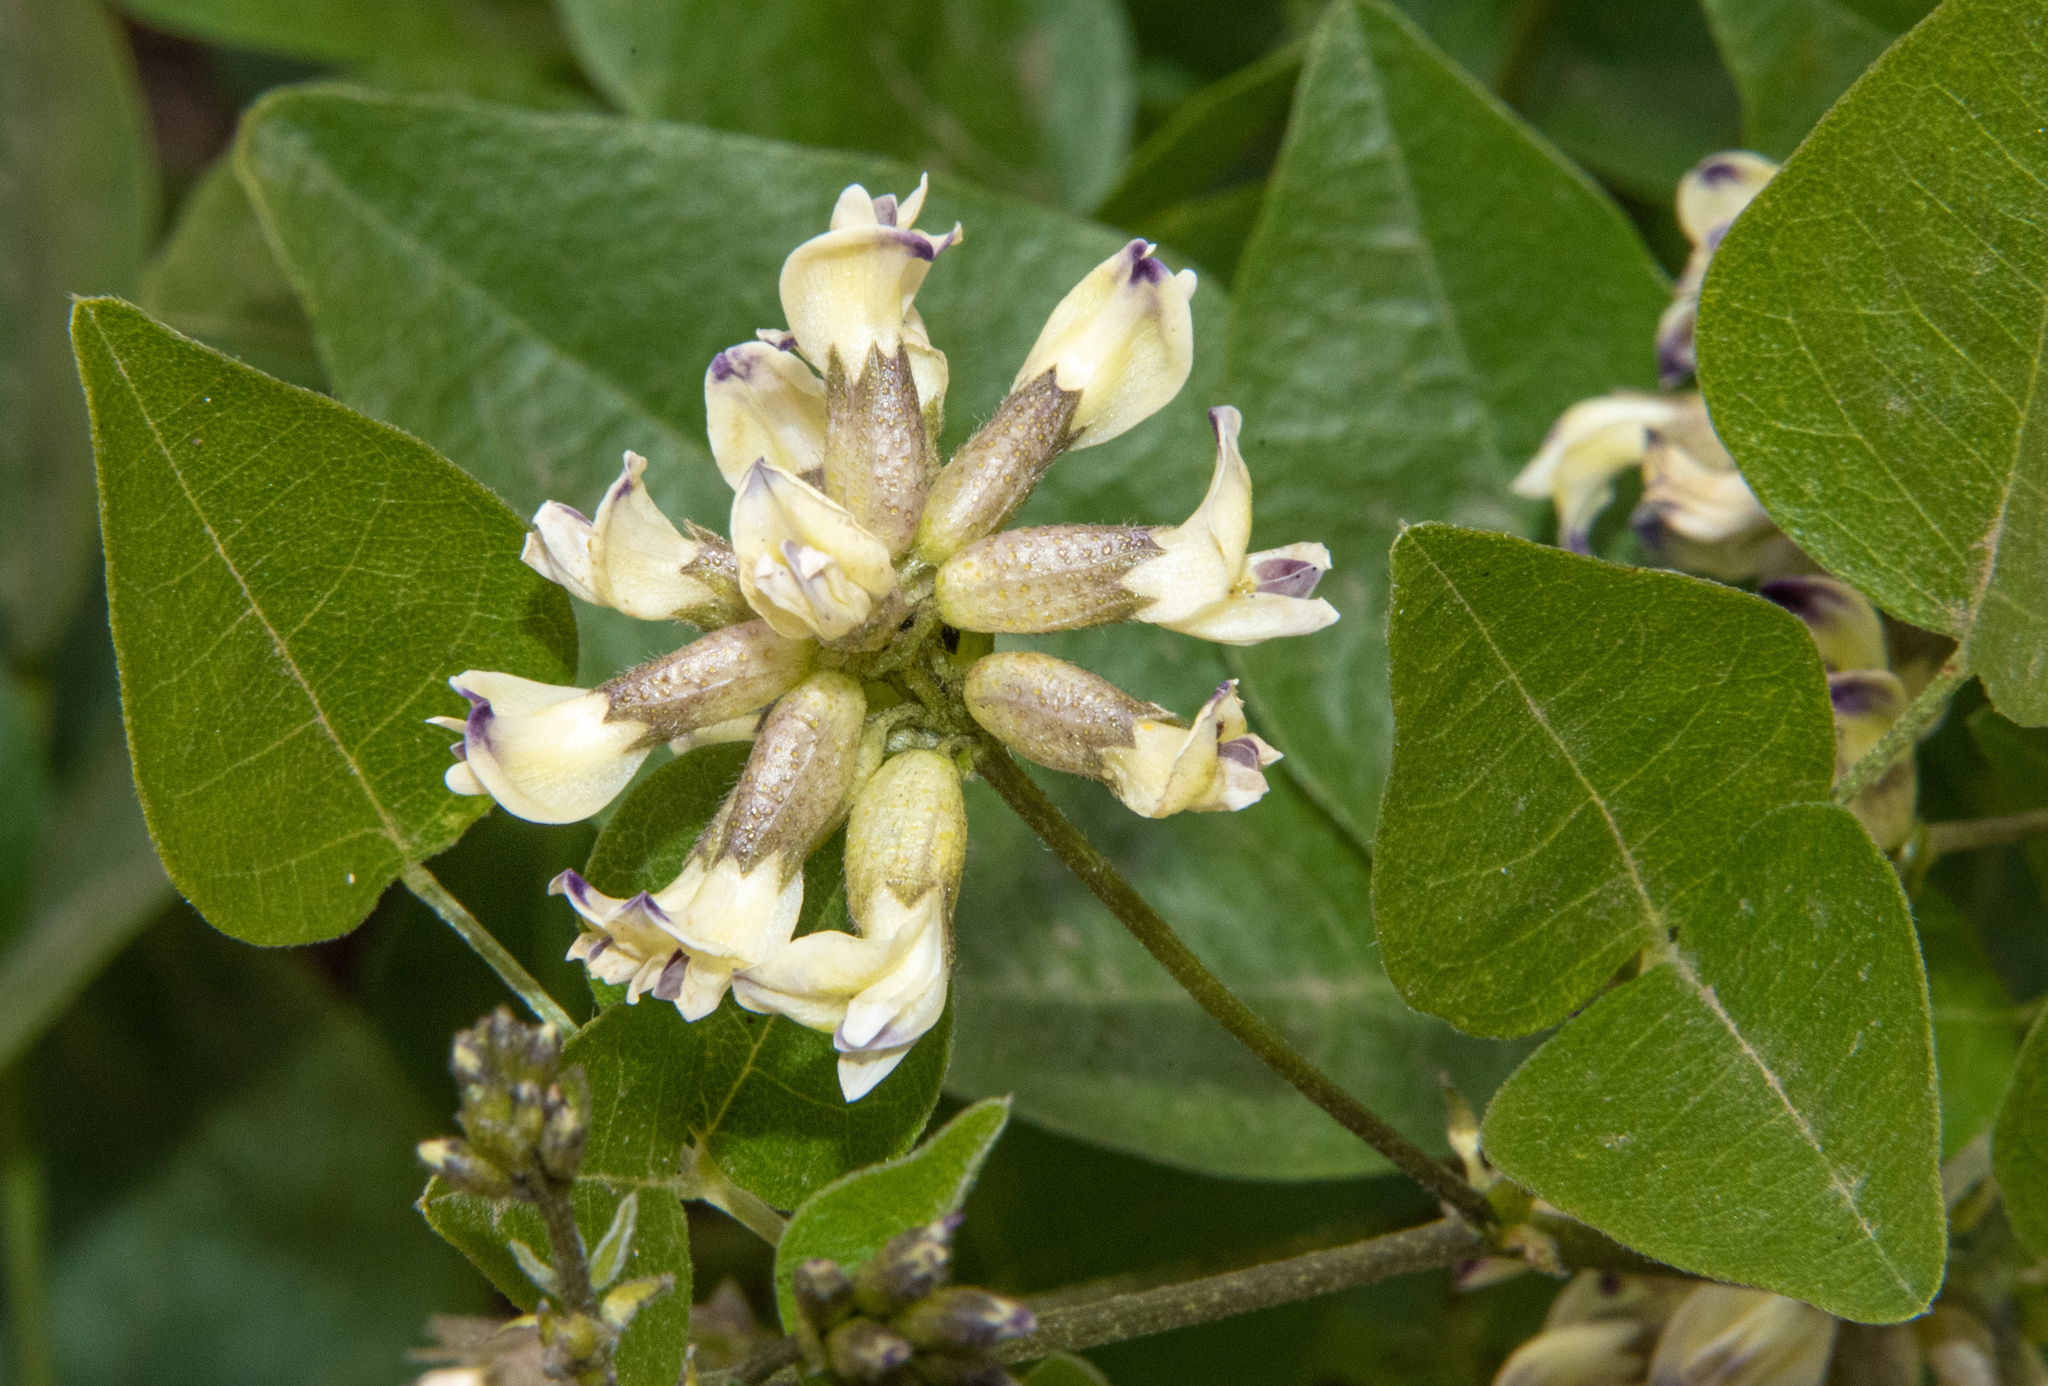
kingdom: Plantae
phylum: Tracheophyta
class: Magnoliopsida
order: Fabales
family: Fabaceae
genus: Rupertia
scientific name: Rupertia physodes
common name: California-tea
